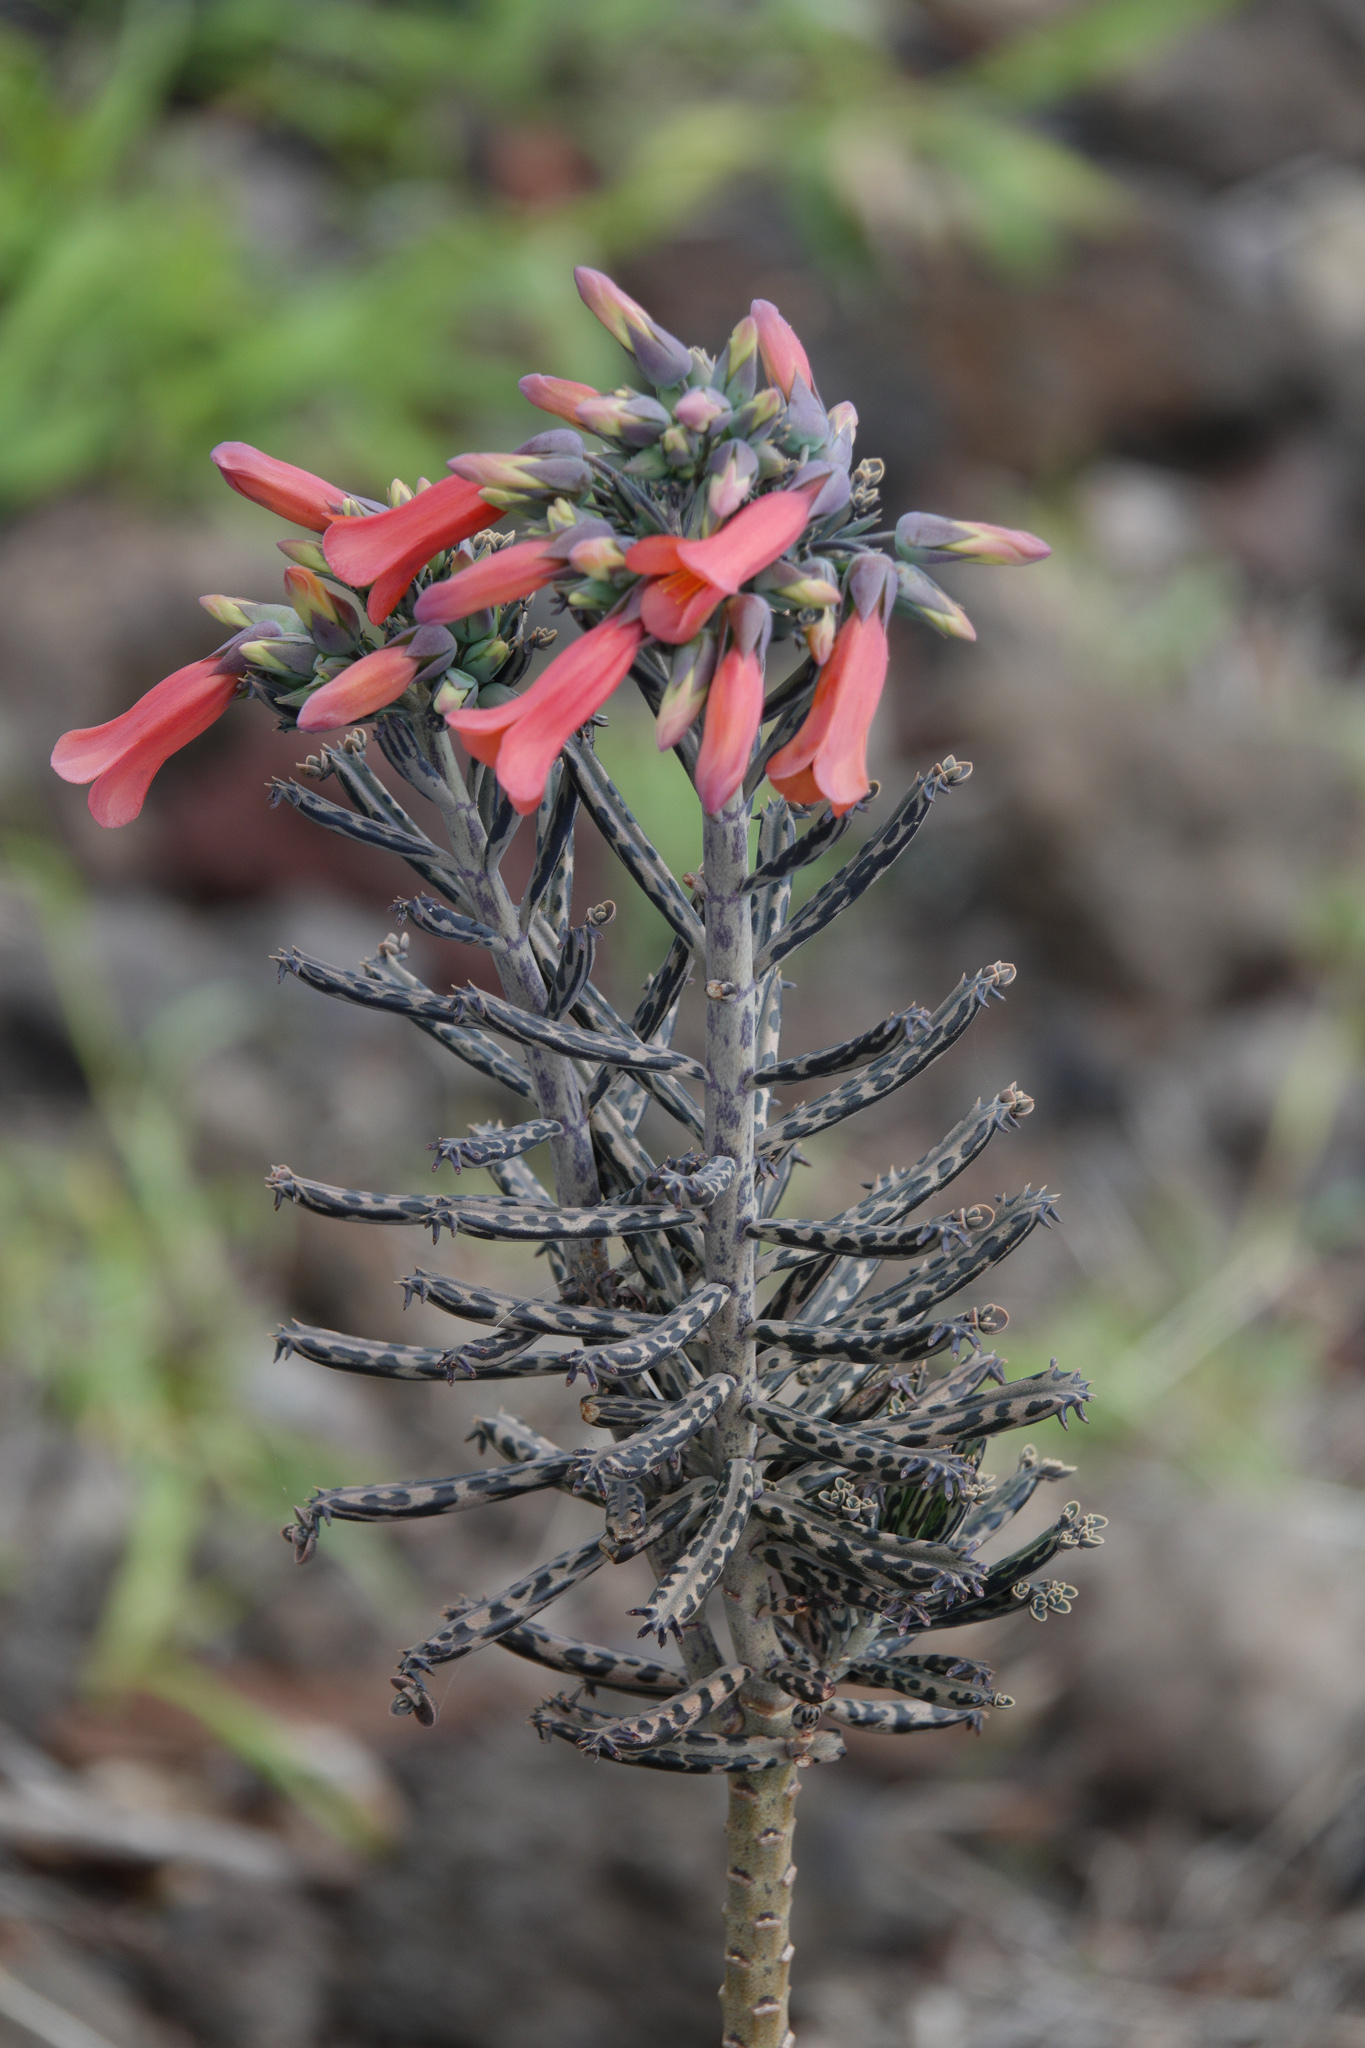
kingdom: Plantae
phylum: Tracheophyta
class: Magnoliopsida
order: Saxifragales
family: Crassulaceae
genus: Kalanchoe
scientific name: Kalanchoe delagoensis
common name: Chandelier plant
